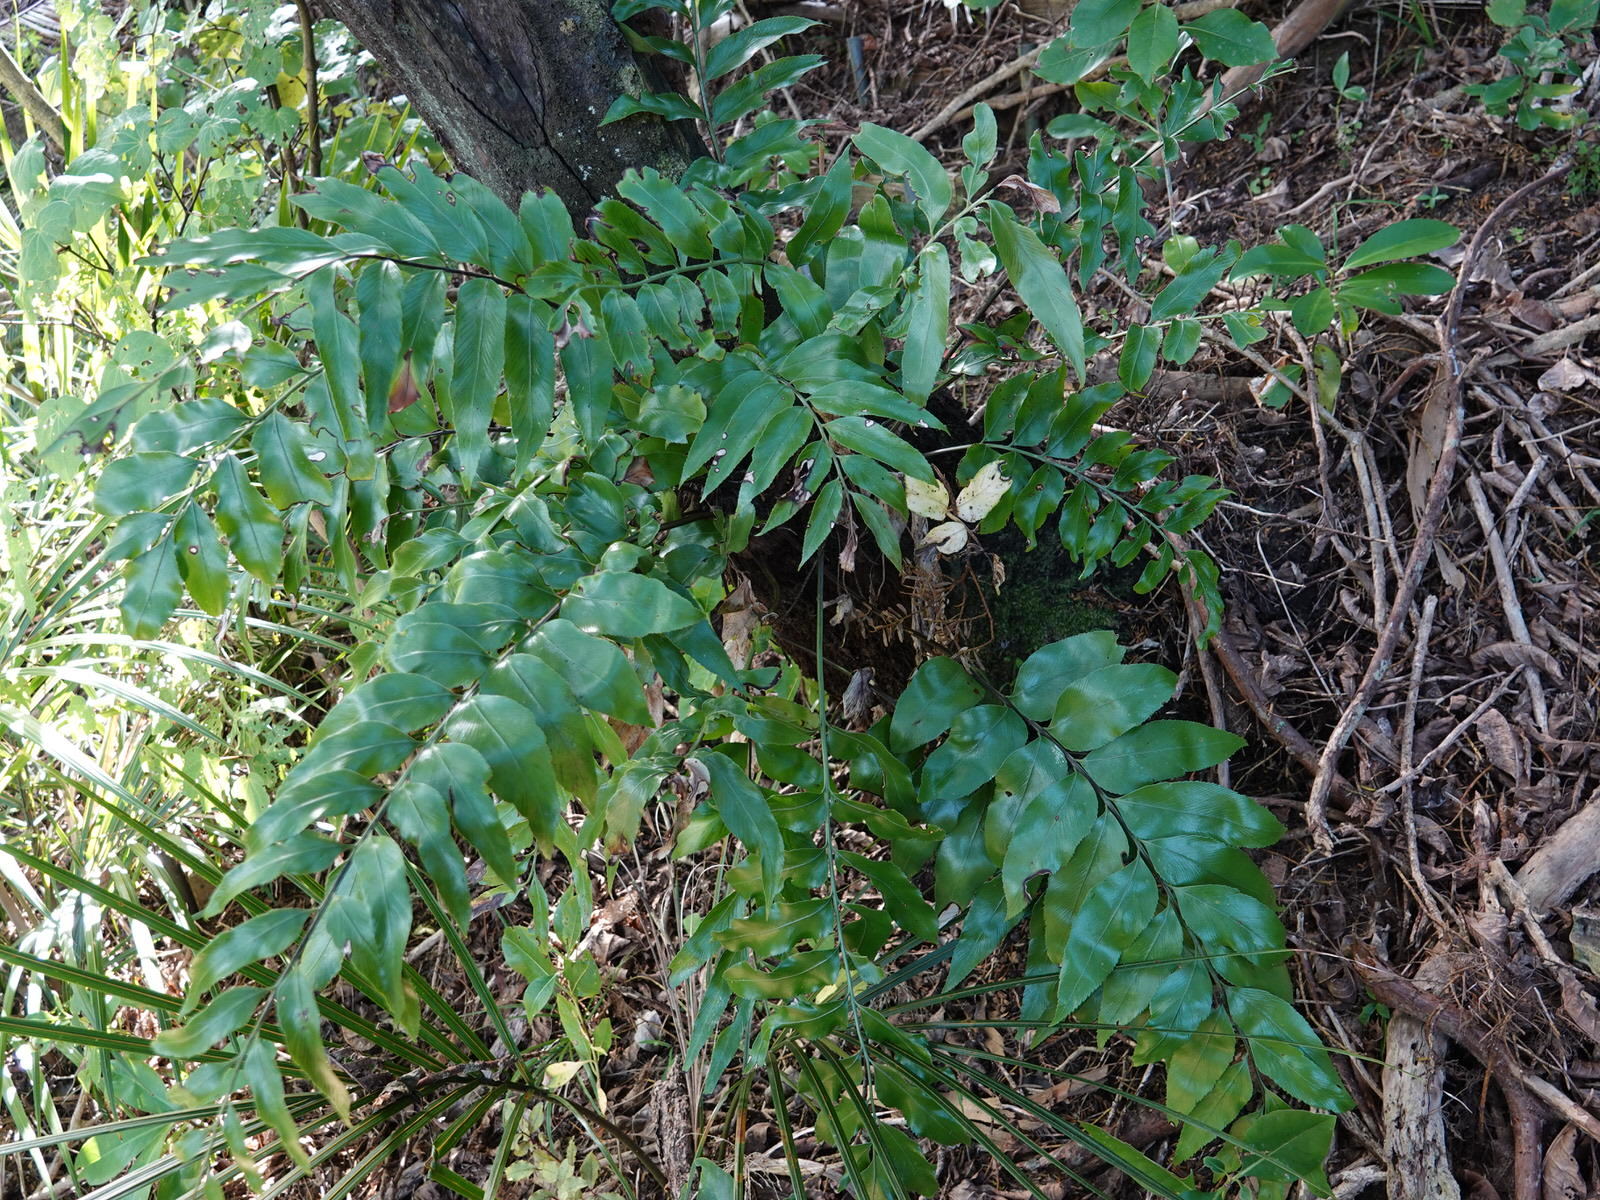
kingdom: Plantae
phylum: Tracheophyta
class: Polypodiopsida
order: Polypodiales
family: Aspleniaceae
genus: Asplenium
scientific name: Asplenium oblongifolium
